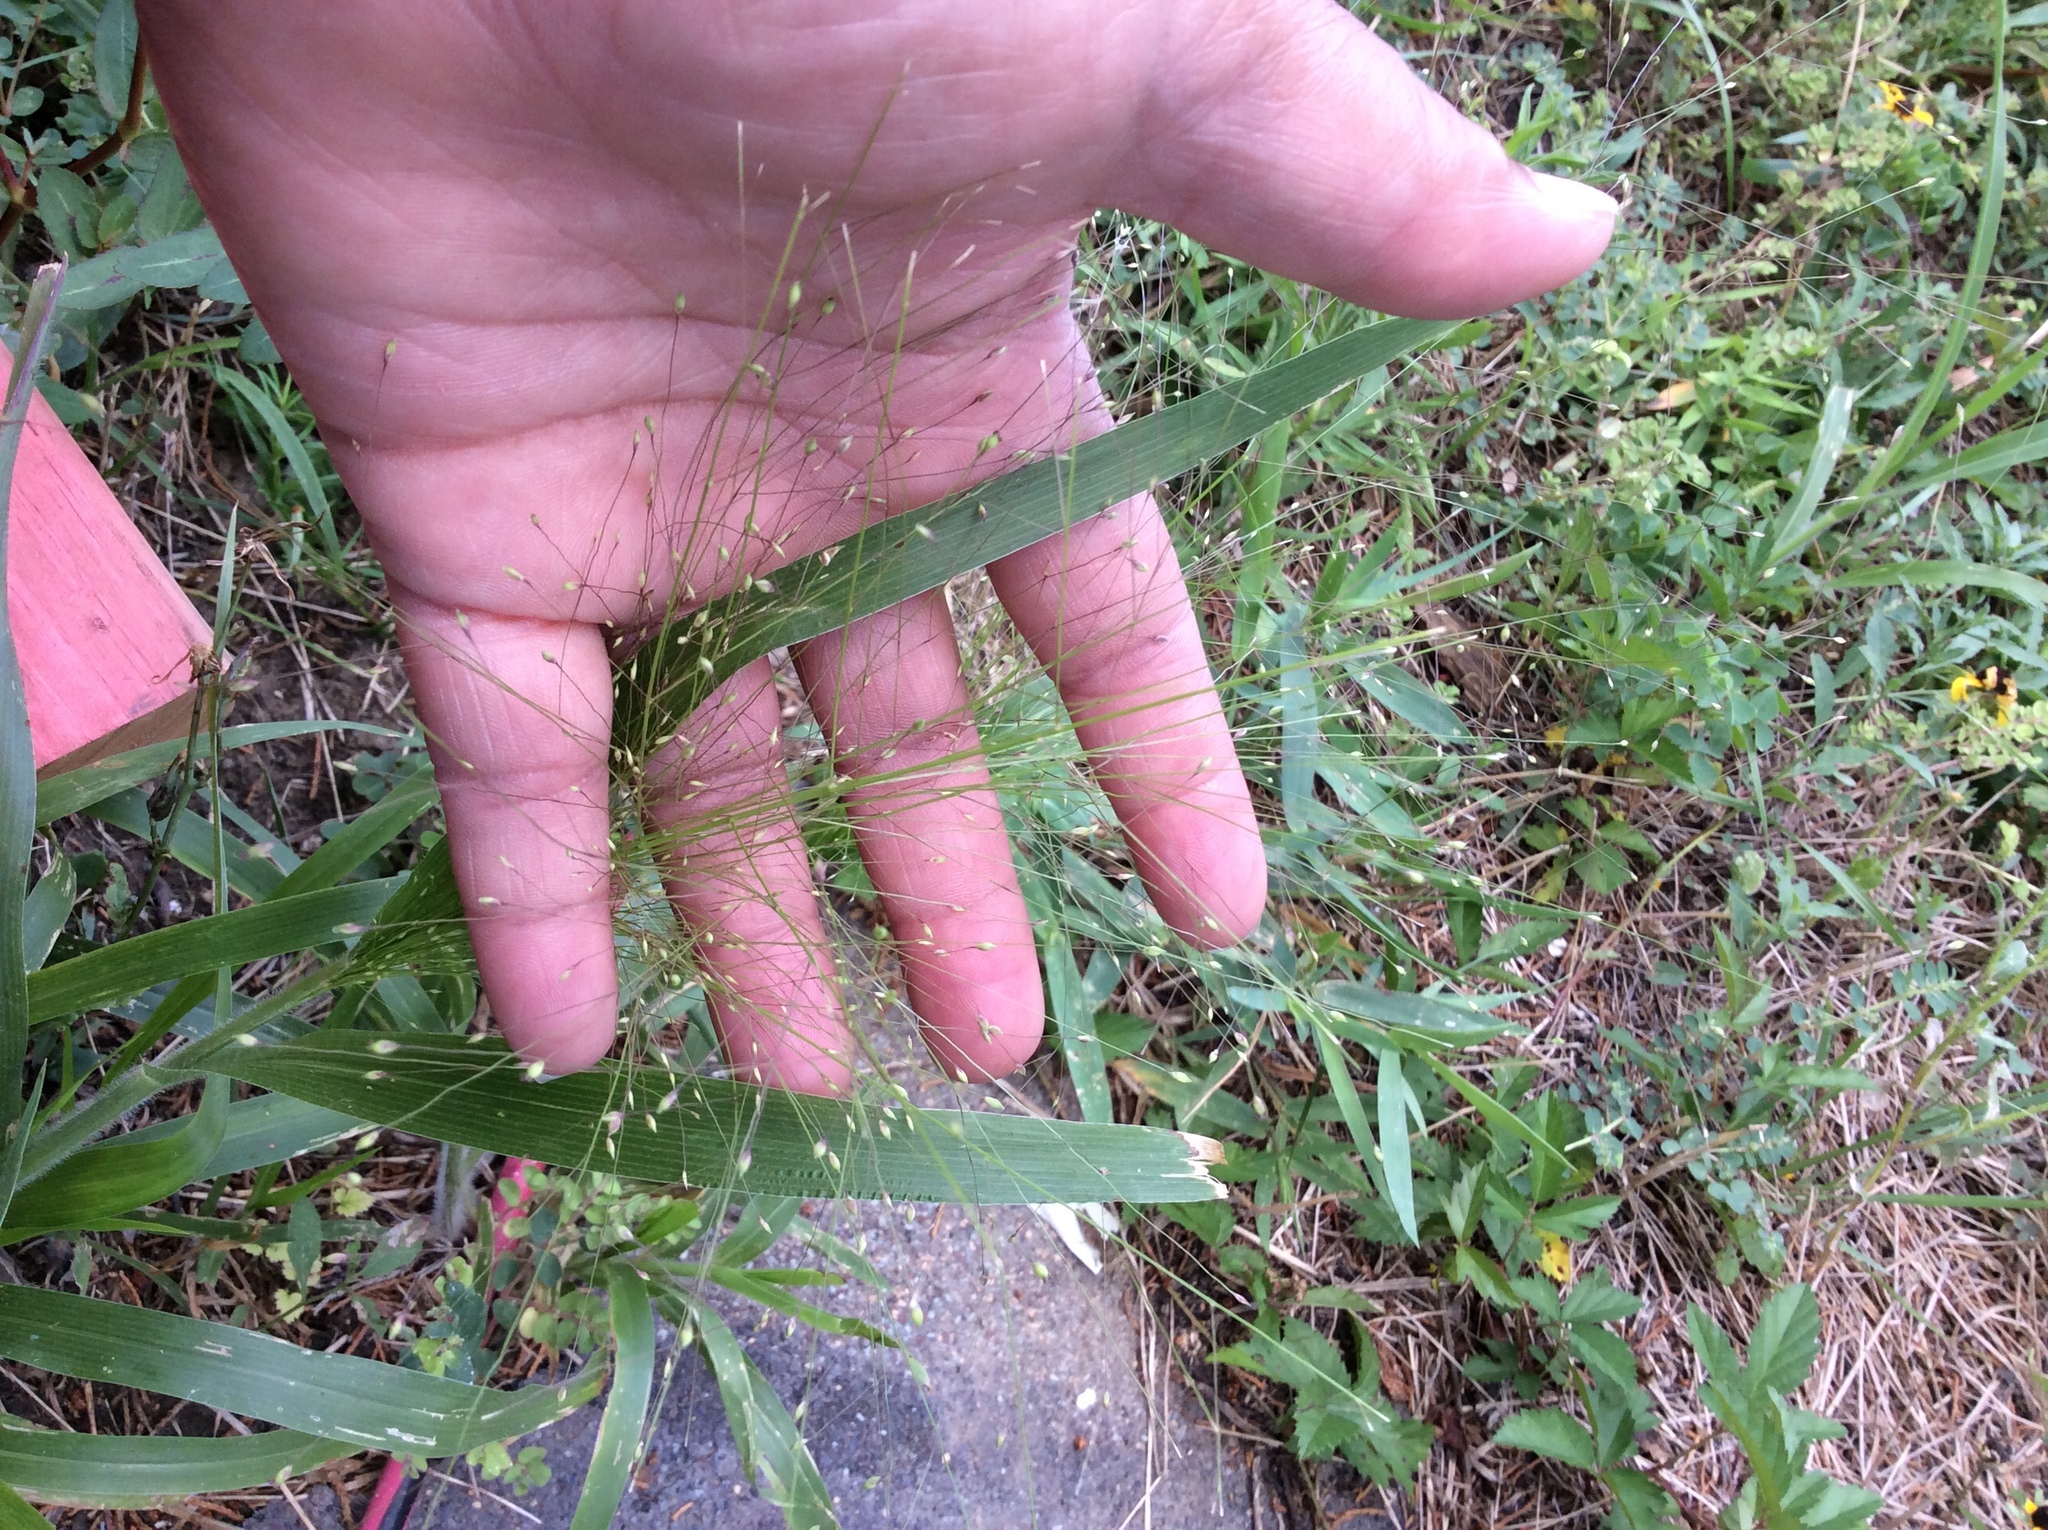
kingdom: Plantae
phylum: Tracheophyta
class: Liliopsida
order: Poales
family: Poaceae
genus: Panicum
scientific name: Panicum capillare
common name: Witch-grass
